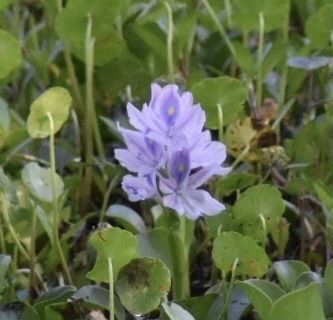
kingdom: Plantae
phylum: Tracheophyta
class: Liliopsida
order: Commelinales
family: Pontederiaceae
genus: Pontederia
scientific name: Pontederia crassipes
